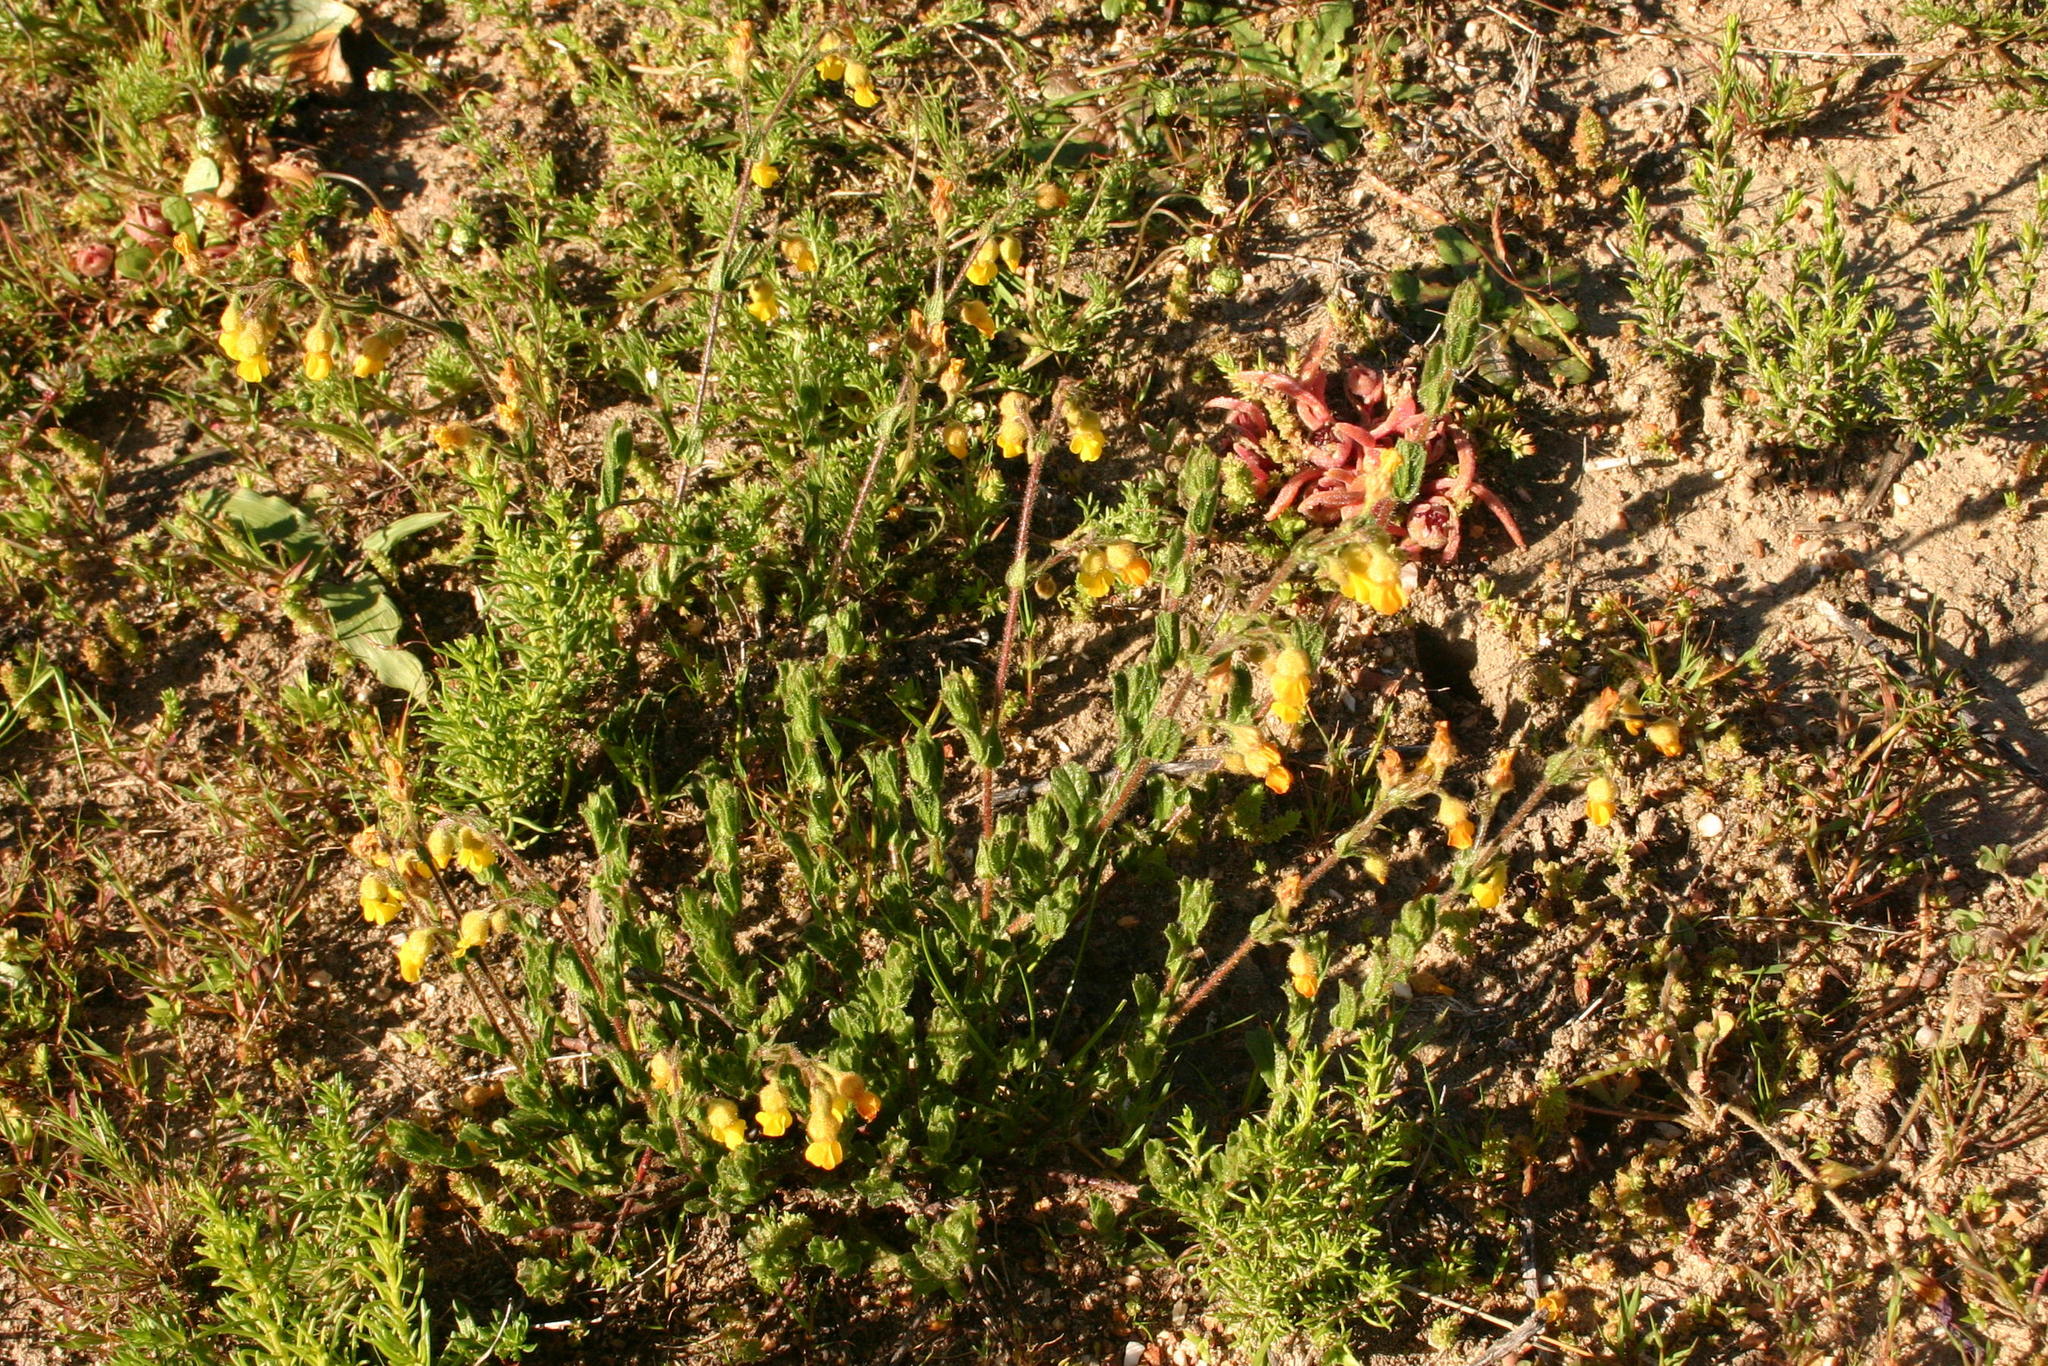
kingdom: Plantae
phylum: Tracheophyta
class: Magnoliopsida
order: Malvales
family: Malvaceae
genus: Hermannia
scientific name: Hermannia stipulacea
